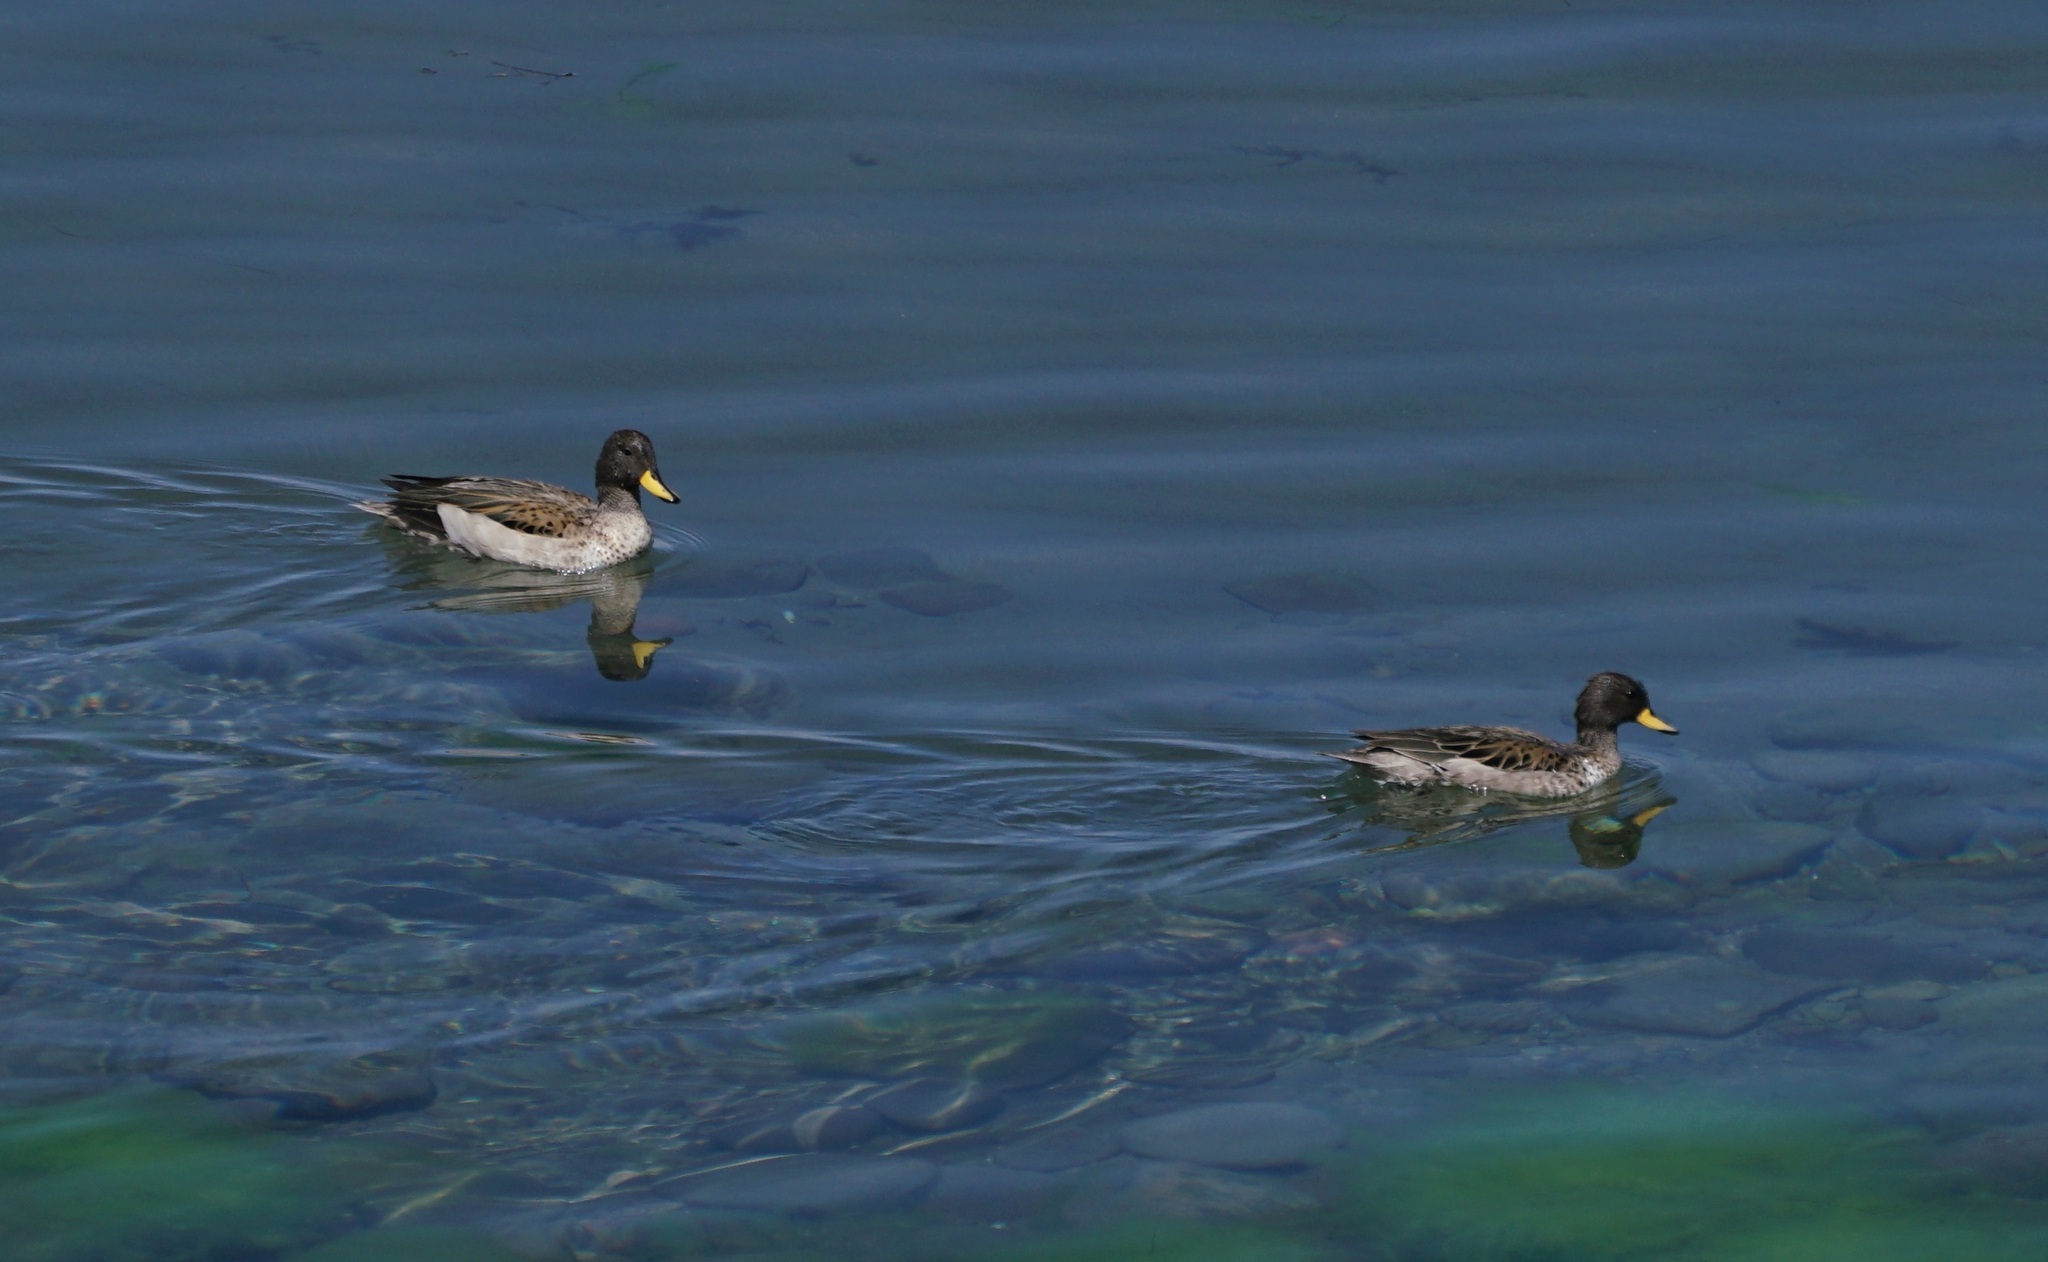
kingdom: Animalia
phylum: Chordata
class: Aves
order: Anseriformes
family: Anatidae
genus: Anas
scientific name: Anas flavirostris
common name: Yellow-billed teal
